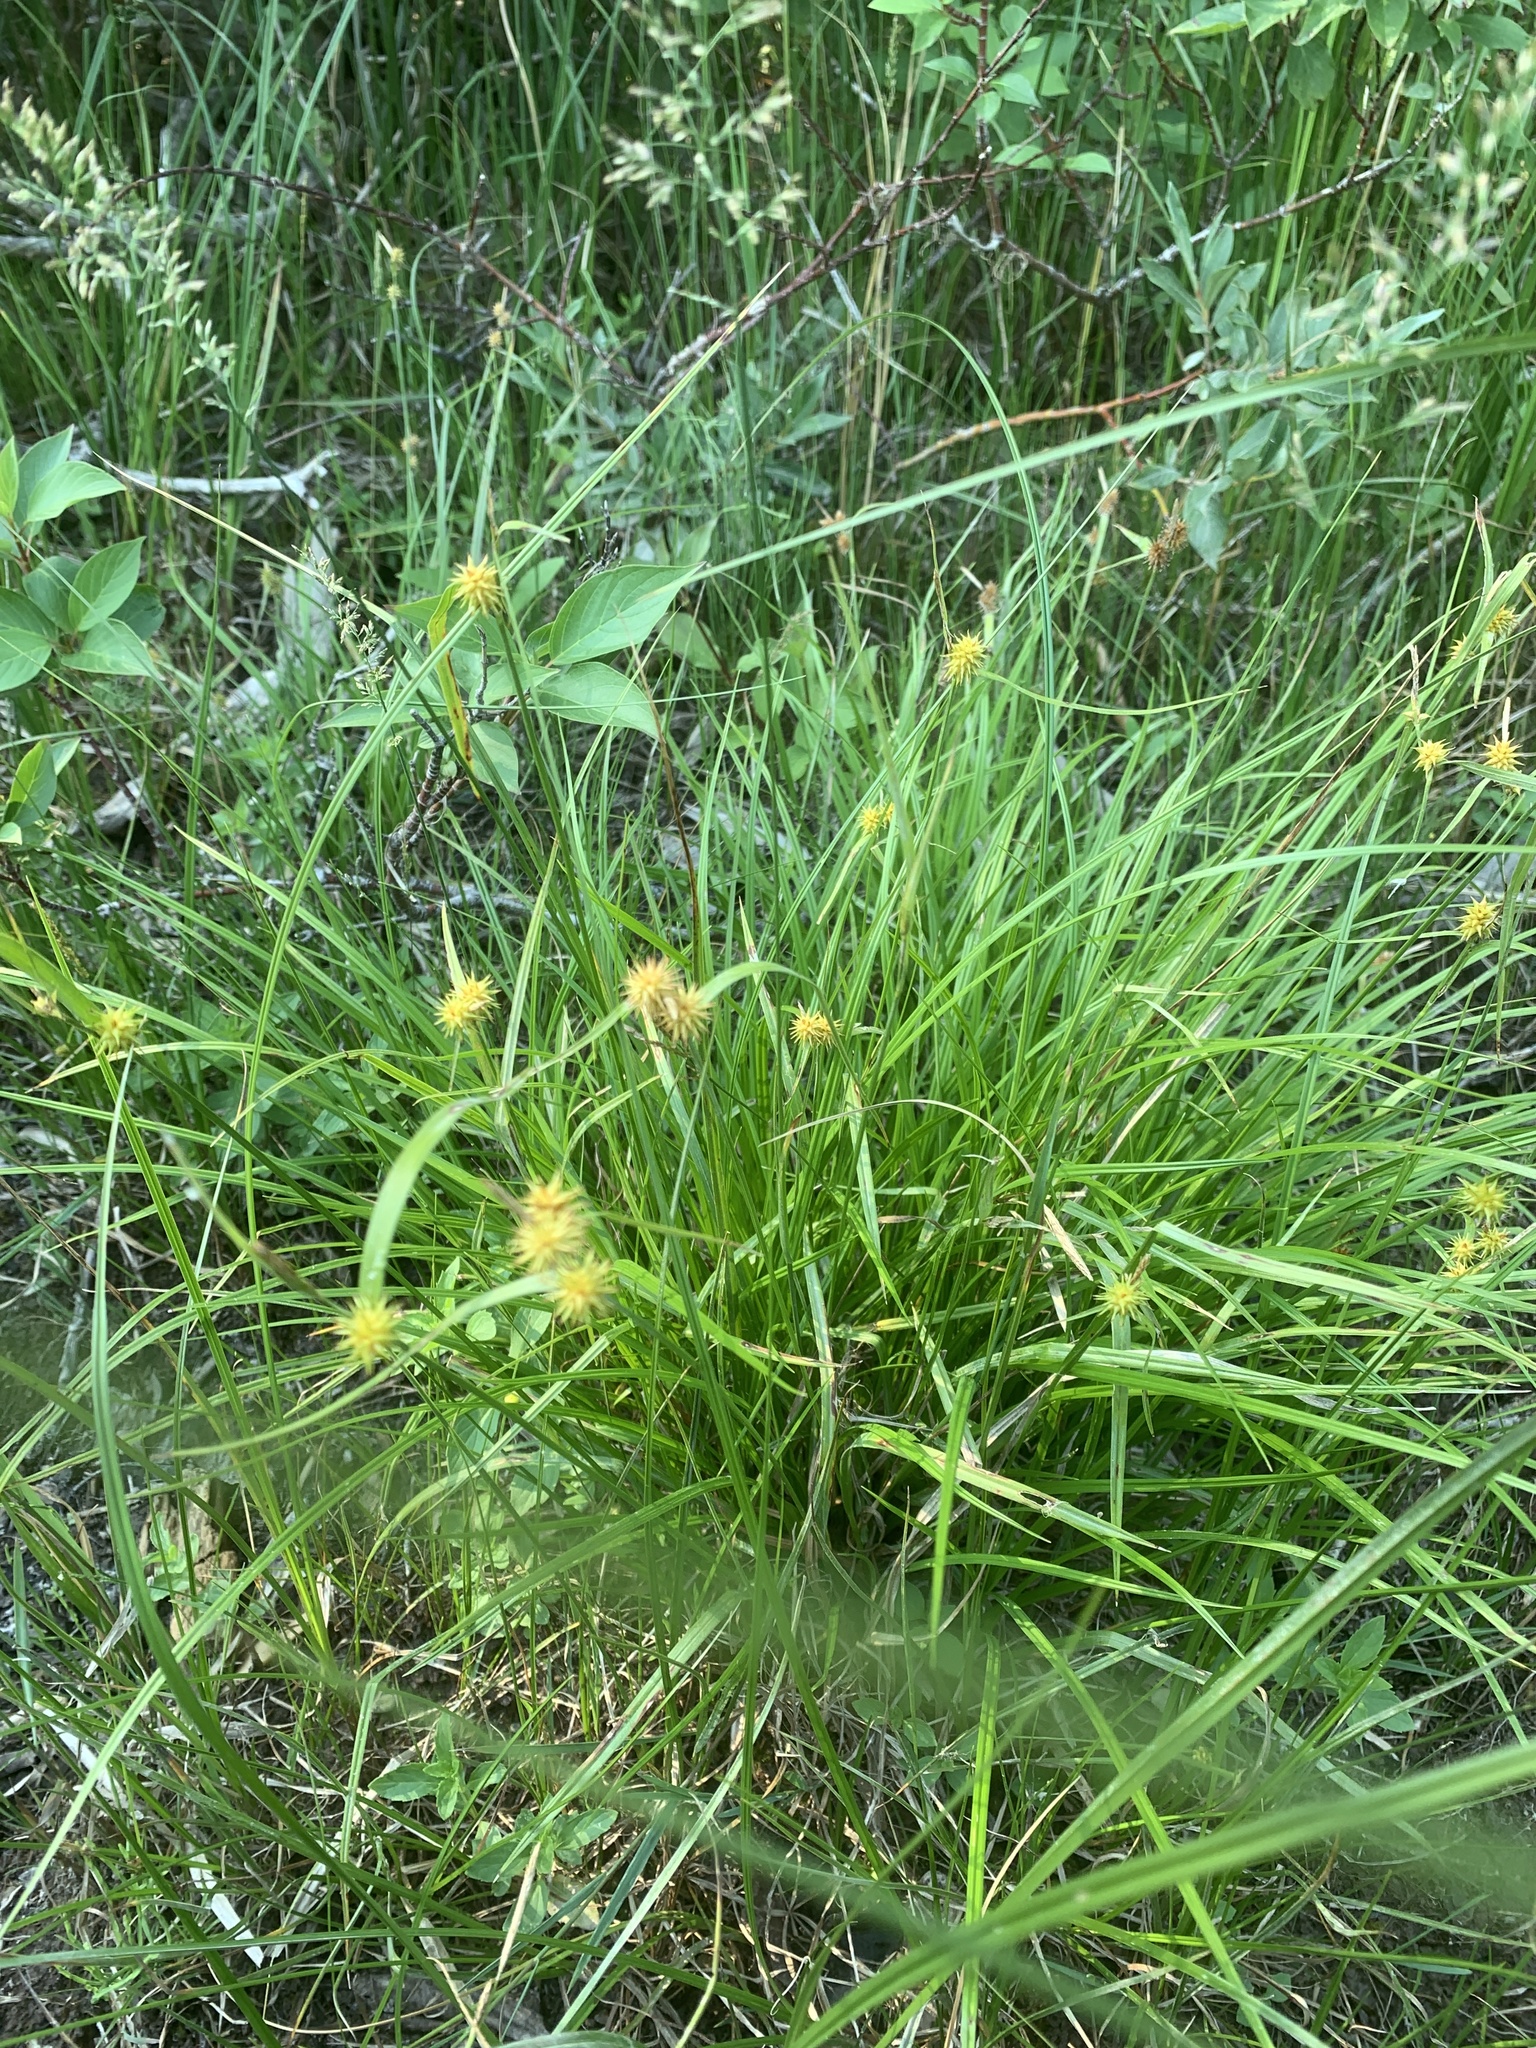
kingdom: Plantae
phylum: Tracheophyta
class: Liliopsida
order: Poales
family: Cyperaceae
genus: Carex
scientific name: Carex flava
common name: Large yellow-sedge
